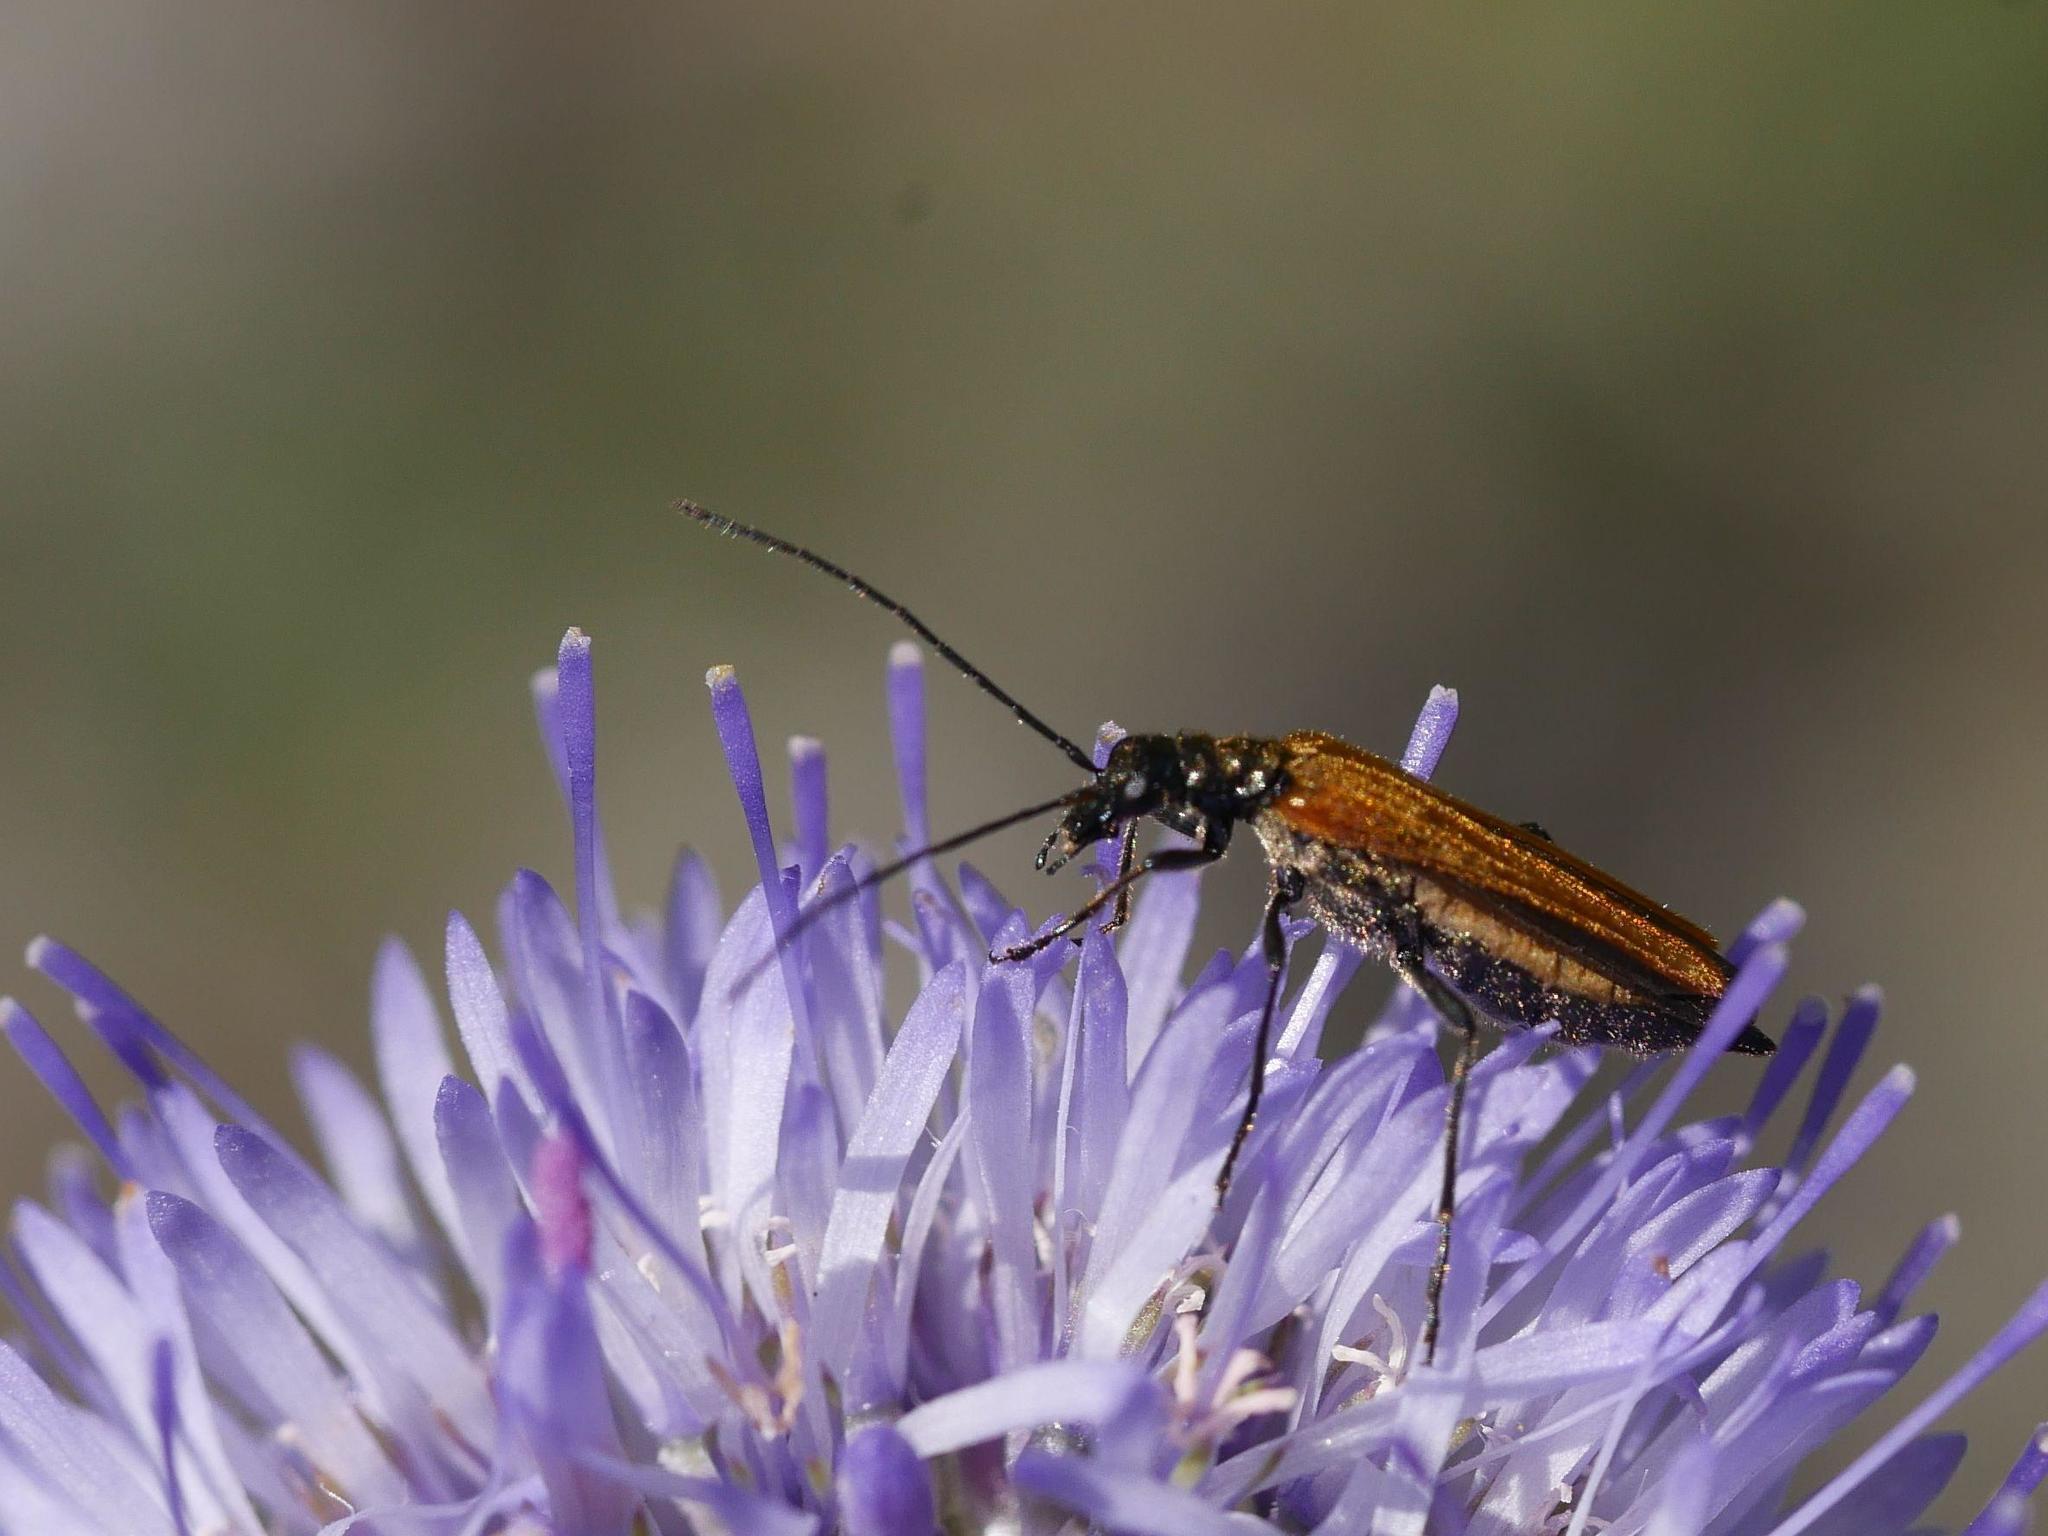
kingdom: Animalia
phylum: Arthropoda
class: Insecta
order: Coleoptera
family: Oedemeridae
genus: Oedemera
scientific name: Oedemera femorata
